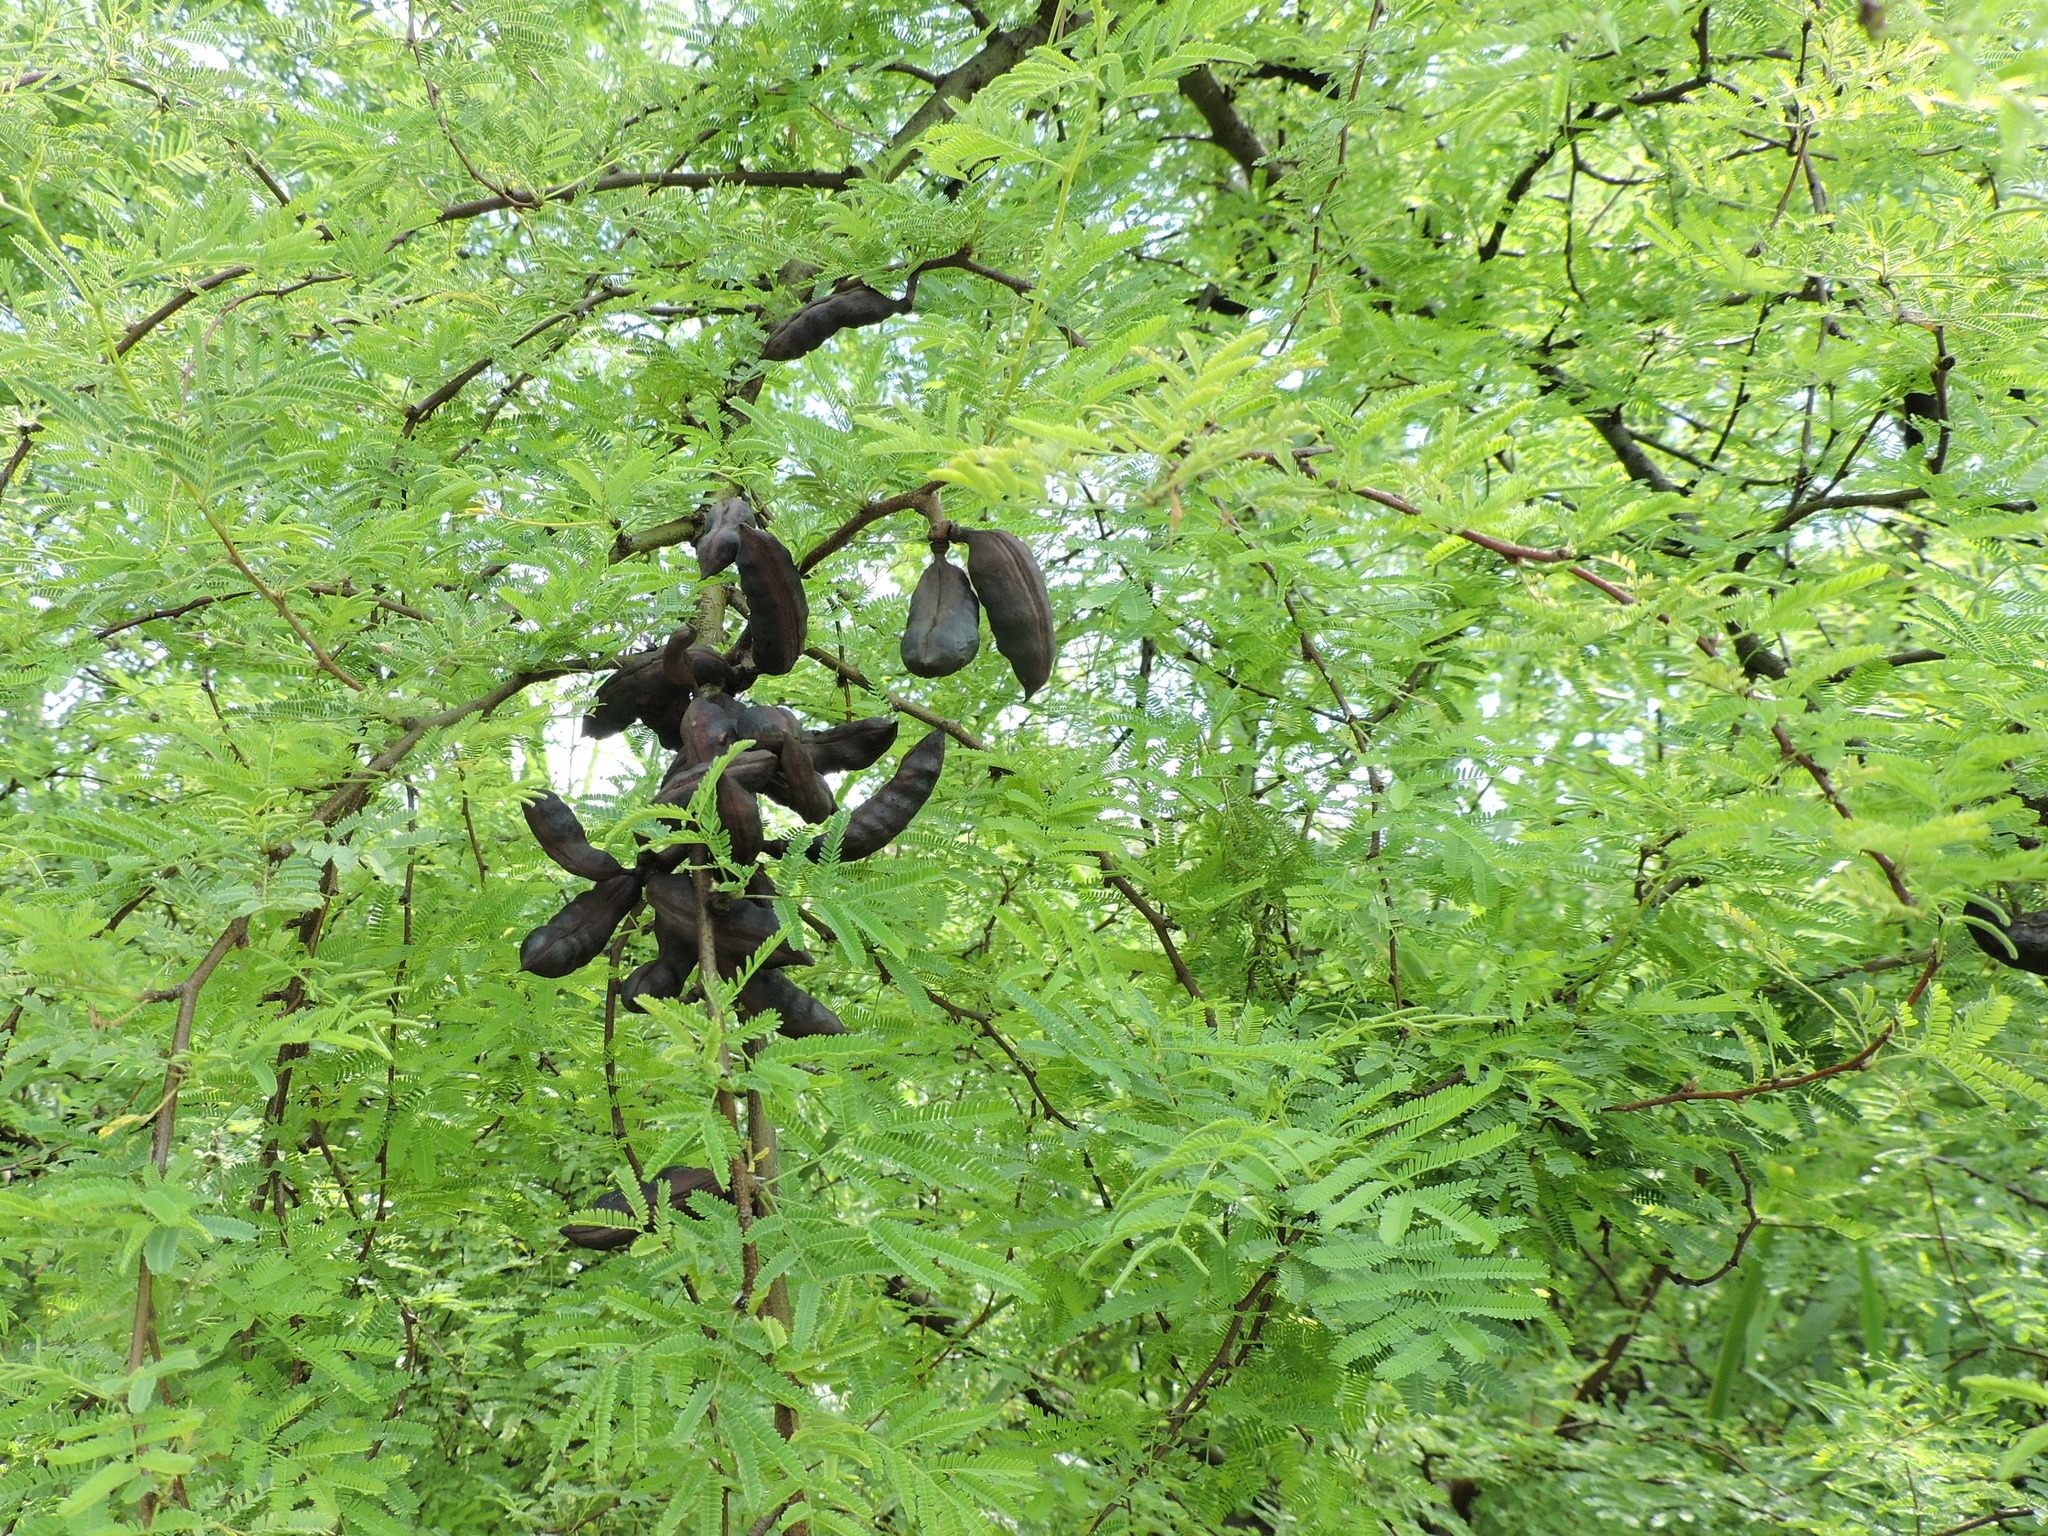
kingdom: Plantae
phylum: Tracheophyta
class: Magnoliopsida
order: Fabales
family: Fabaceae
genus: Vachellia
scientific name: Vachellia farnesiana
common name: Sweet acacia
